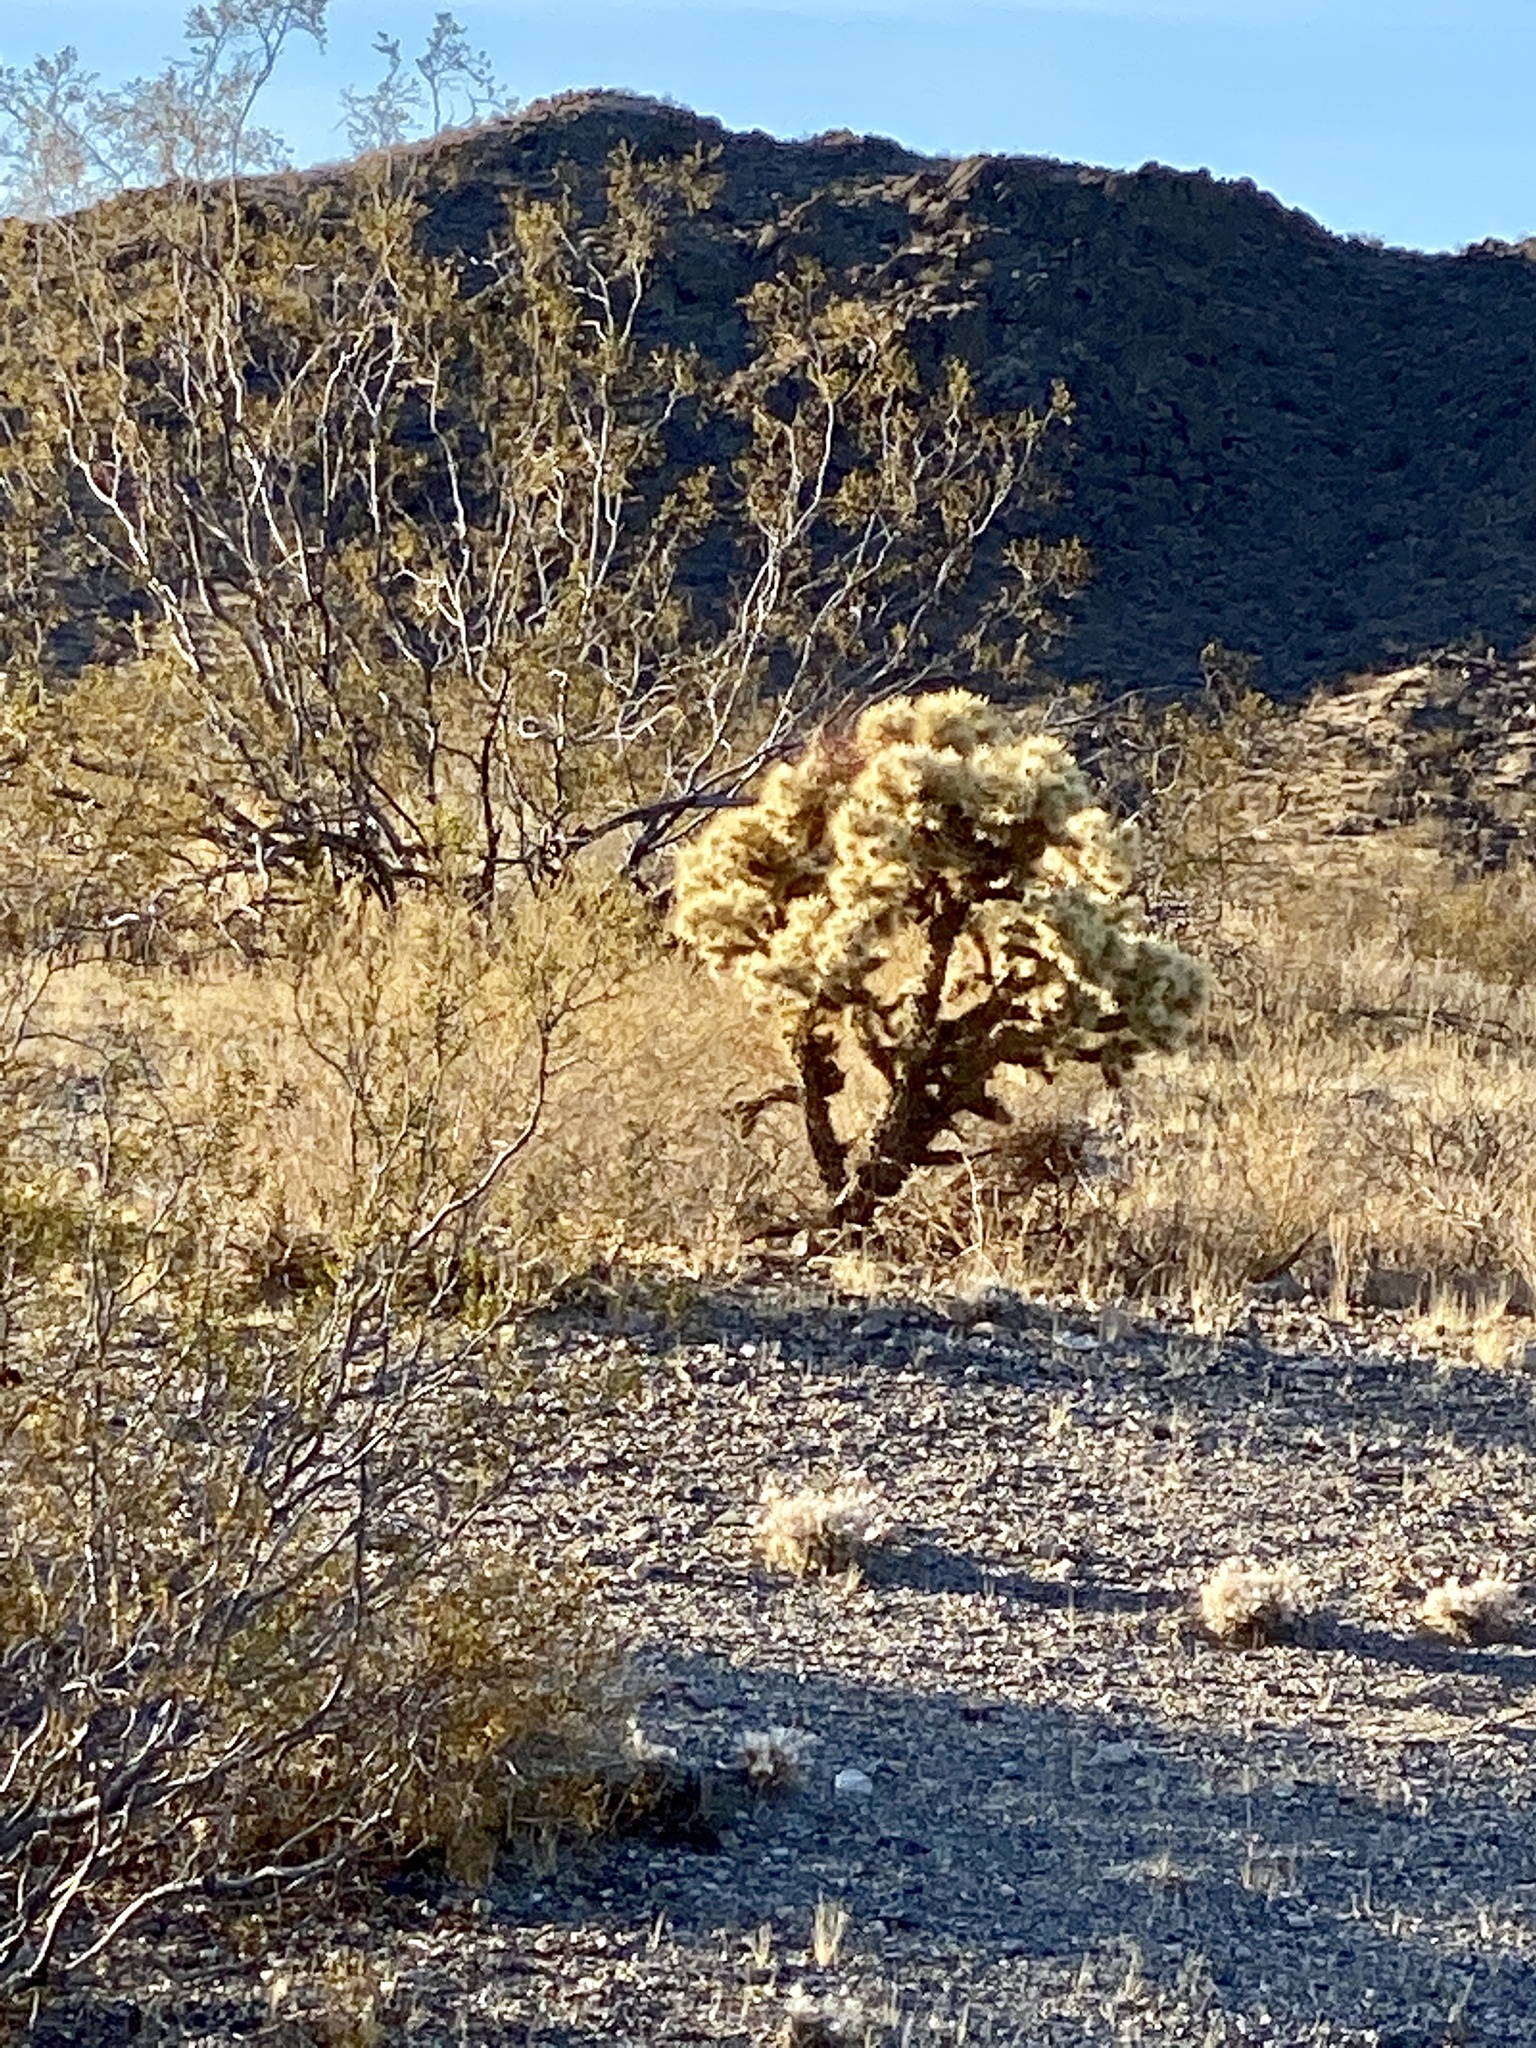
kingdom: Plantae
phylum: Tracheophyta
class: Magnoliopsida
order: Caryophyllales
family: Cactaceae
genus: Cylindropuntia
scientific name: Cylindropuntia echinocarpa
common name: Ground cholla
